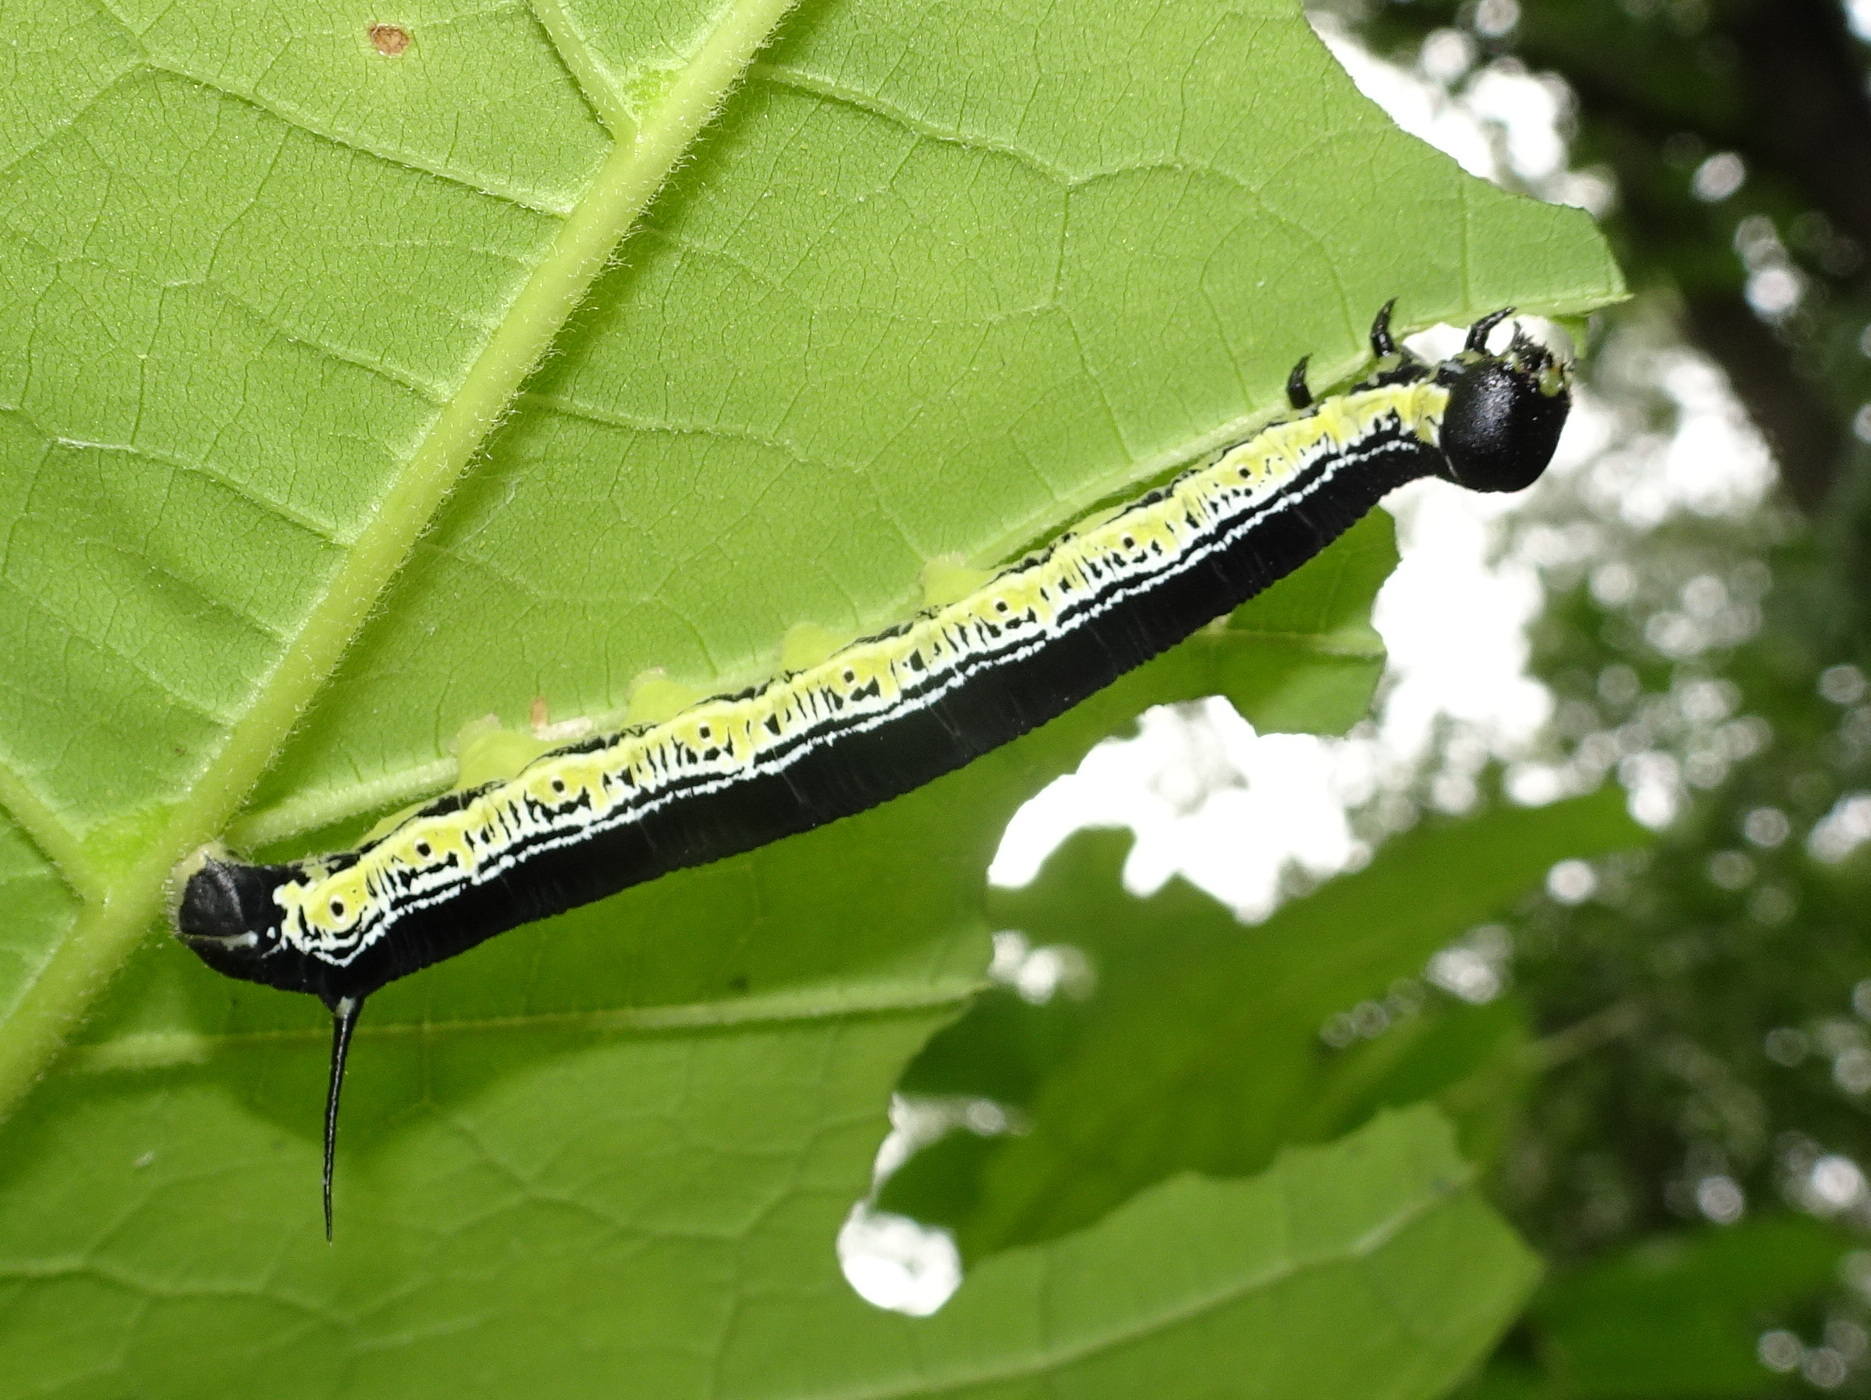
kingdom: Animalia
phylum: Arthropoda
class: Insecta
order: Lepidoptera
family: Sphingidae
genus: Ceratomia
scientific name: Ceratomia catalpae
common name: Catalpa hornworm
